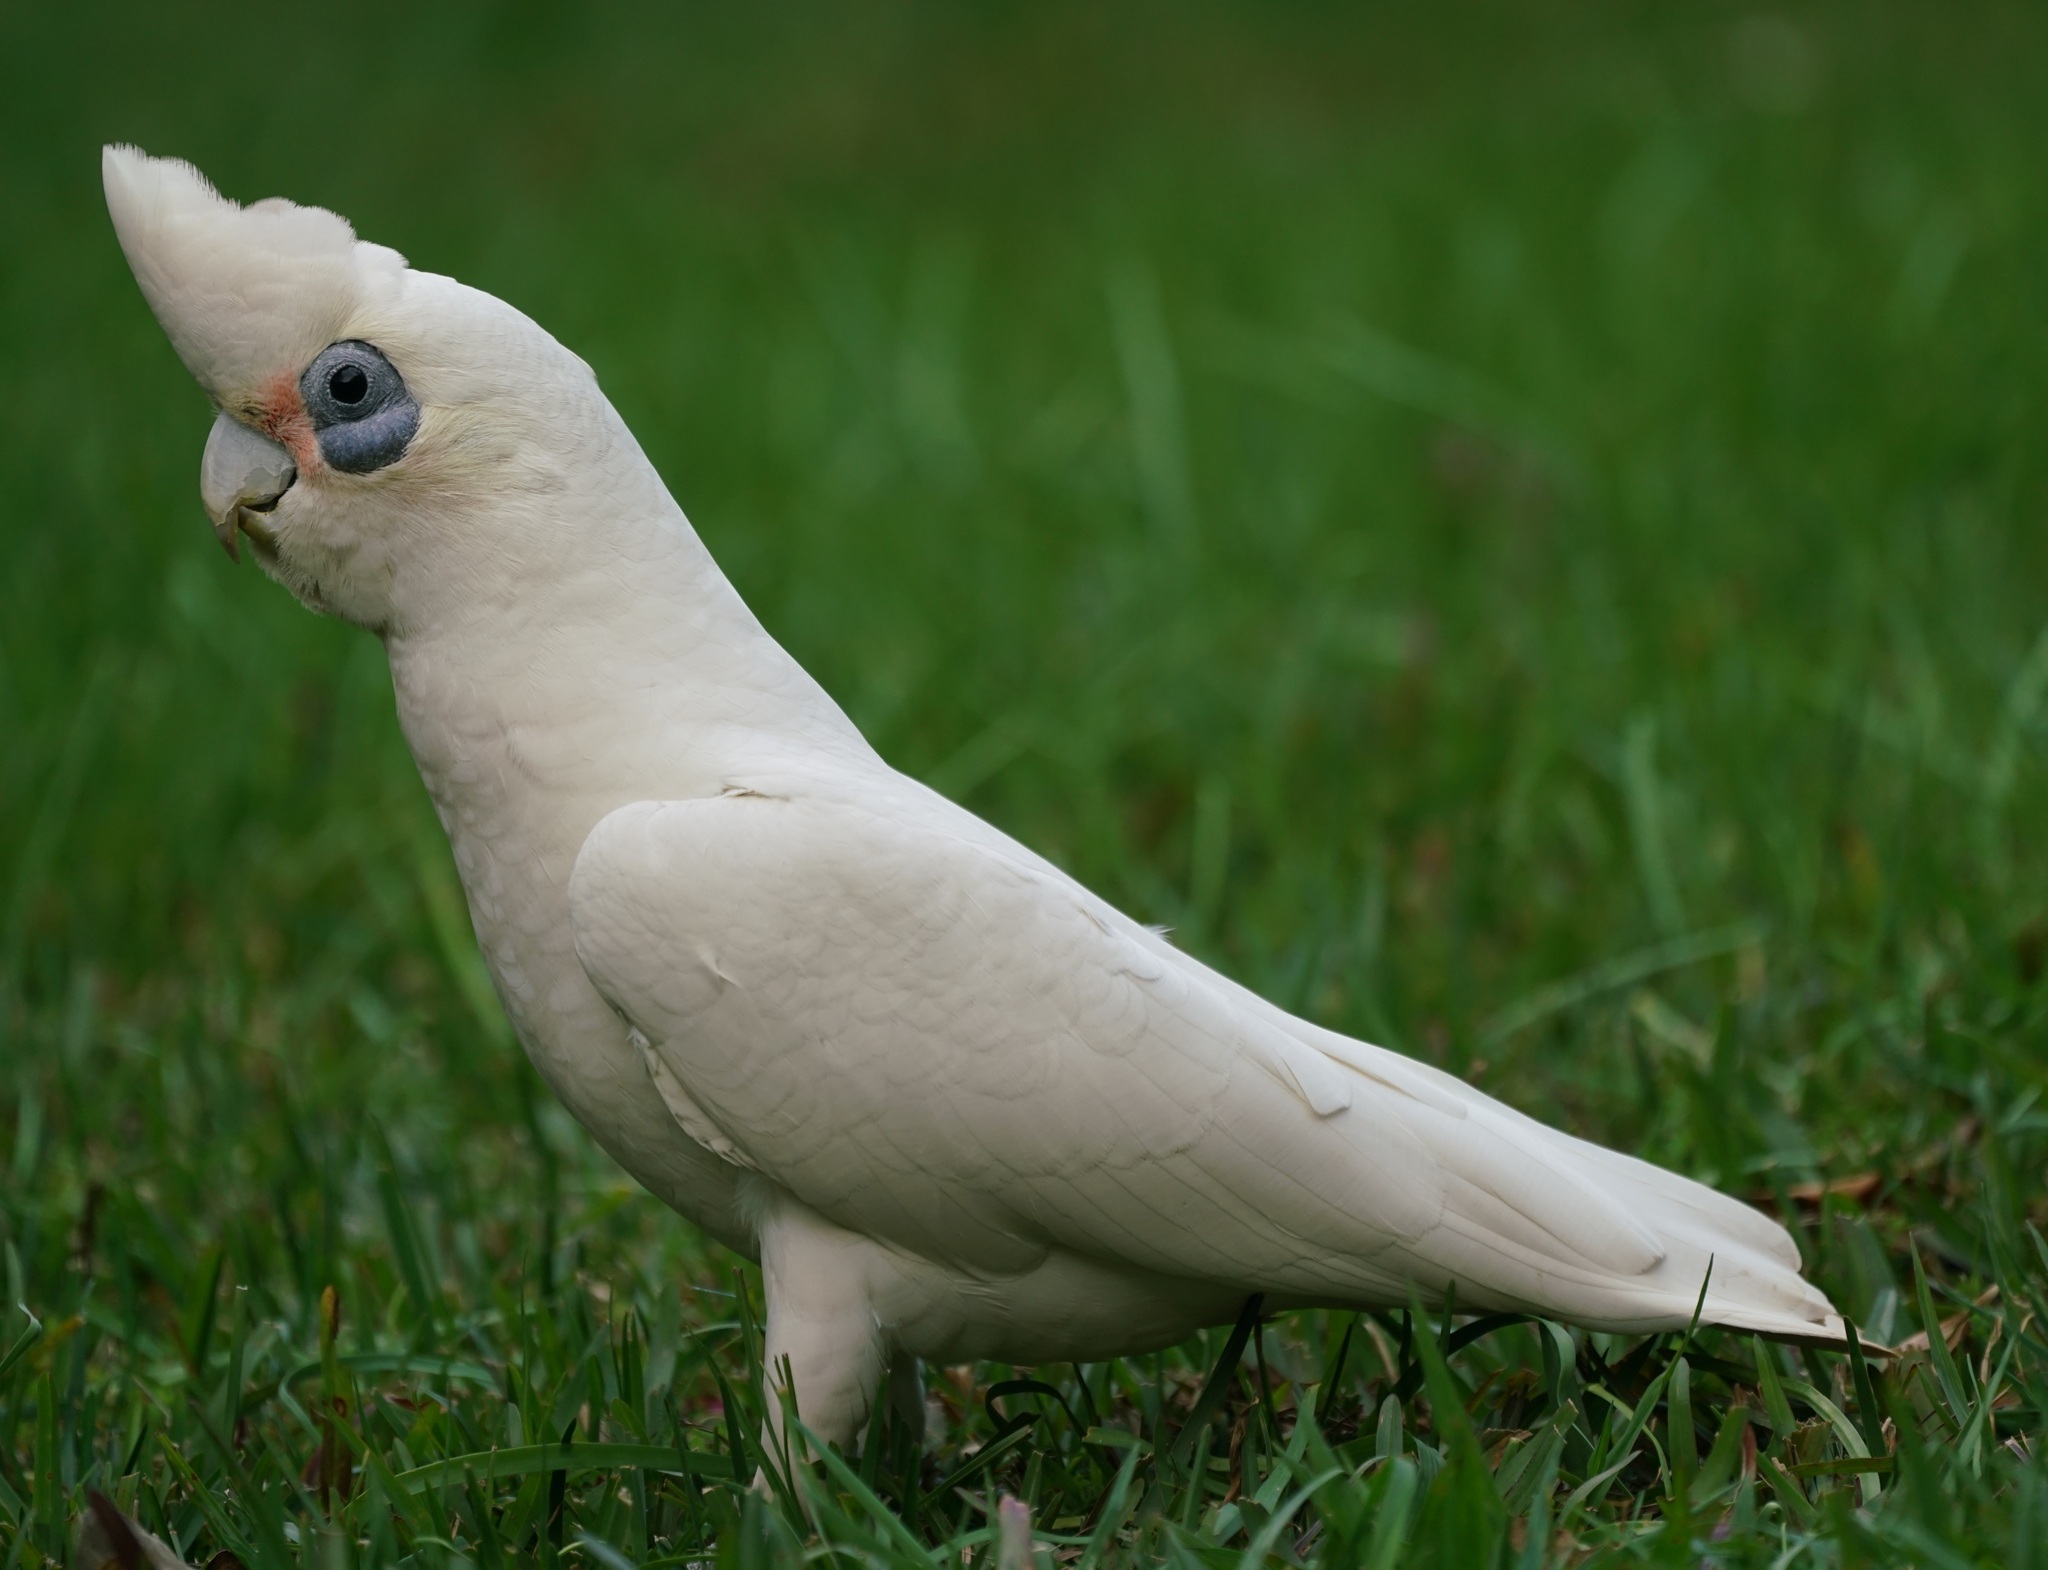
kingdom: Animalia
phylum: Chordata
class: Aves
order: Psittaciformes
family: Psittacidae
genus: Cacatua
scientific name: Cacatua sanguinea
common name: Little corella
